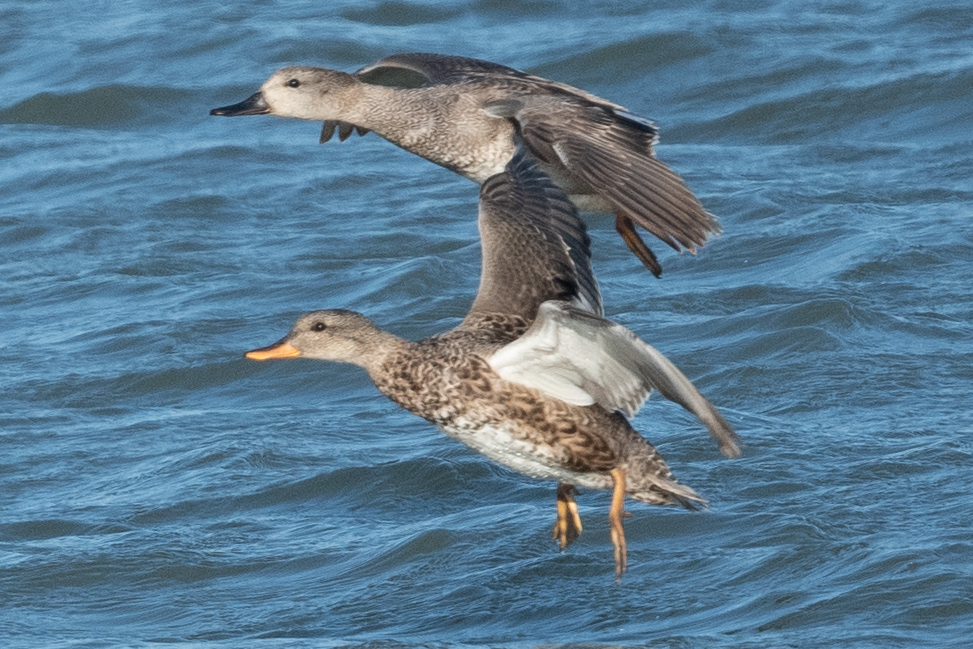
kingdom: Animalia
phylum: Chordata
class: Aves
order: Anseriformes
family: Anatidae
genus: Mareca
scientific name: Mareca strepera
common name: Gadwall
